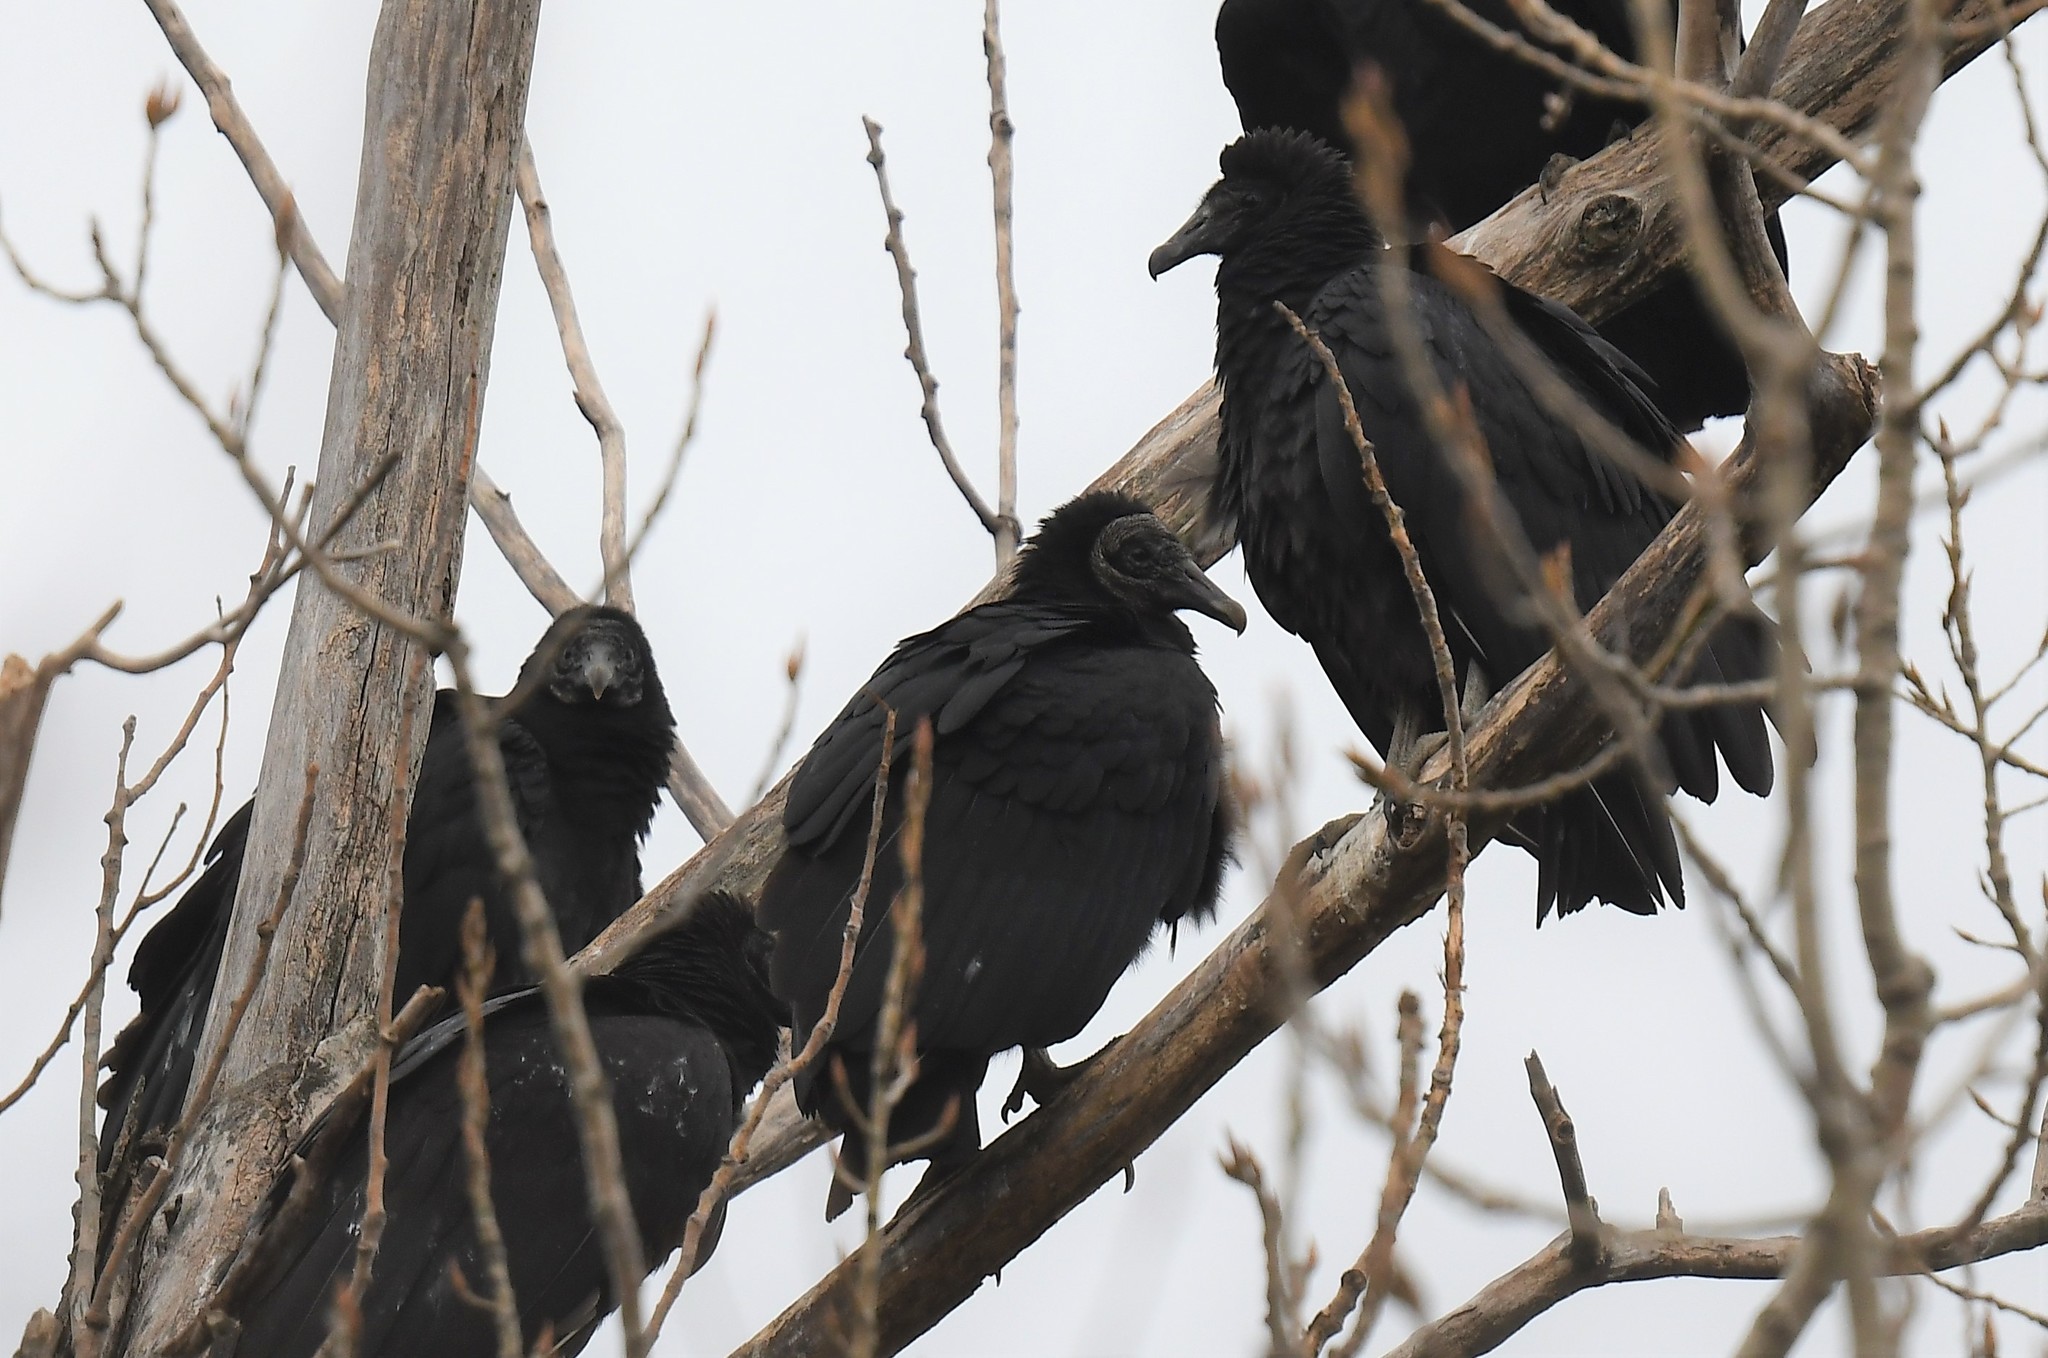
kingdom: Animalia
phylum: Chordata
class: Aves
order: Accipitriformes
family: Cathartidae
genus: Coragyps
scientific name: Coragyps atratus
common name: Black vulture
